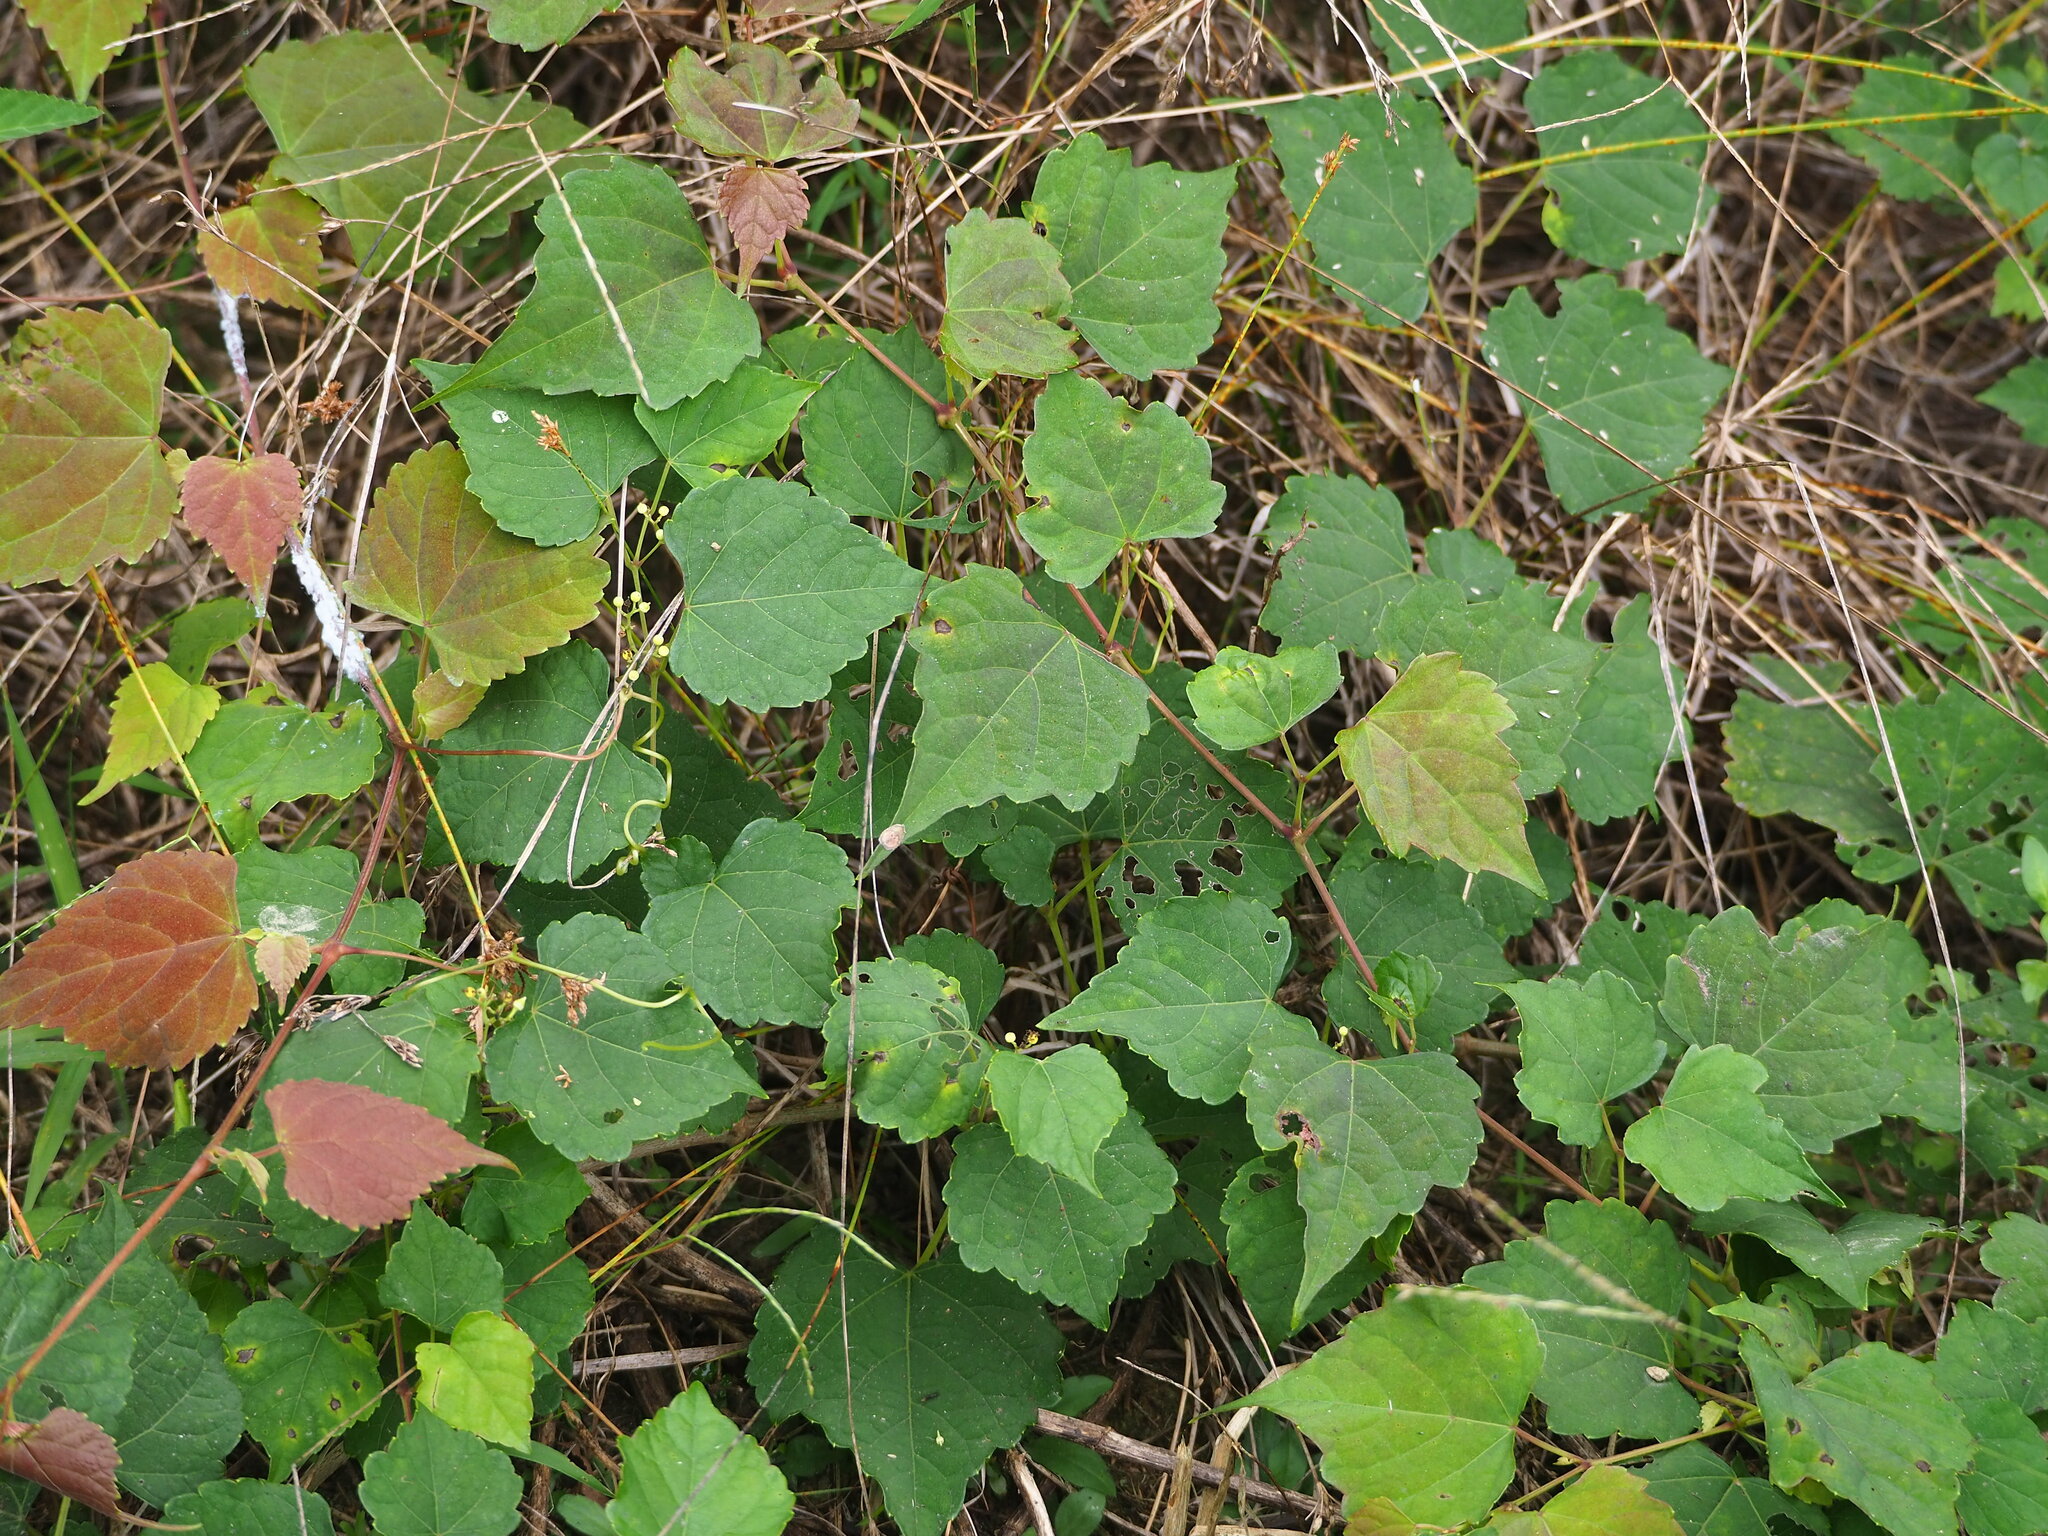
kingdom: Plantae
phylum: Tracheophyta
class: Magnoliopsida
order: Vitales
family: Vitaceae
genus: Ampelopsis
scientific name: Ampelopsis glandulosa
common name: Amur peppervine
